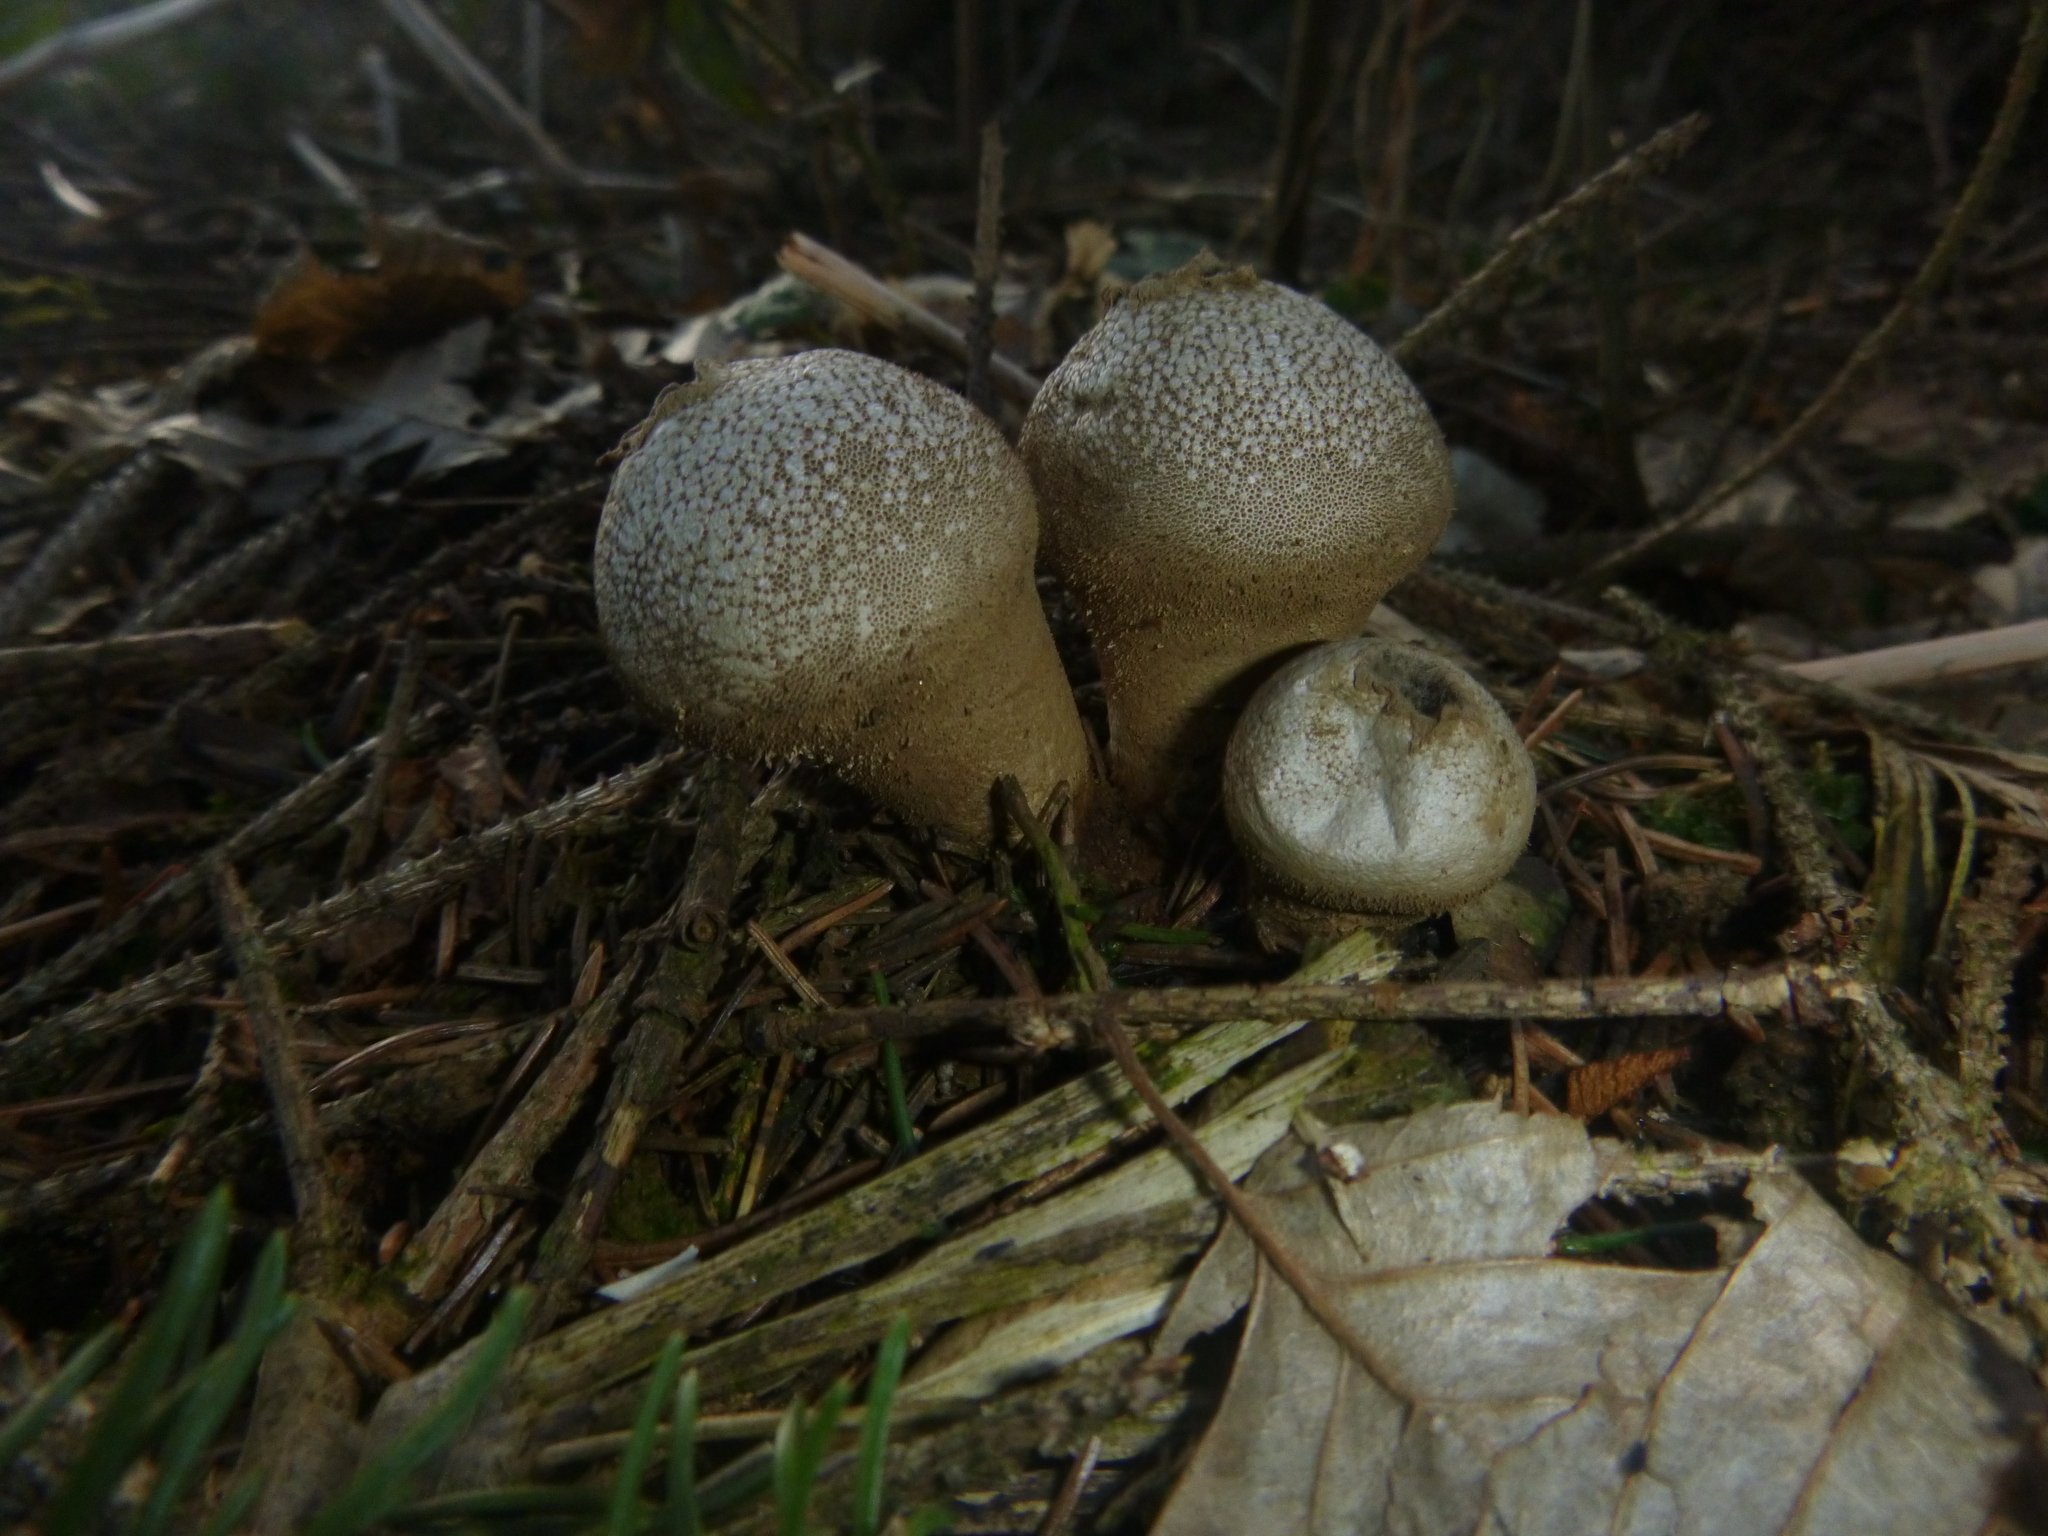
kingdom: Fungi
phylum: Basidiomycota
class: Agaricomycetes
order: Agaricales
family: Lycoperdaceae
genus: Lycoperdon
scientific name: Lycoperdon perlatum
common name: Common puffball
